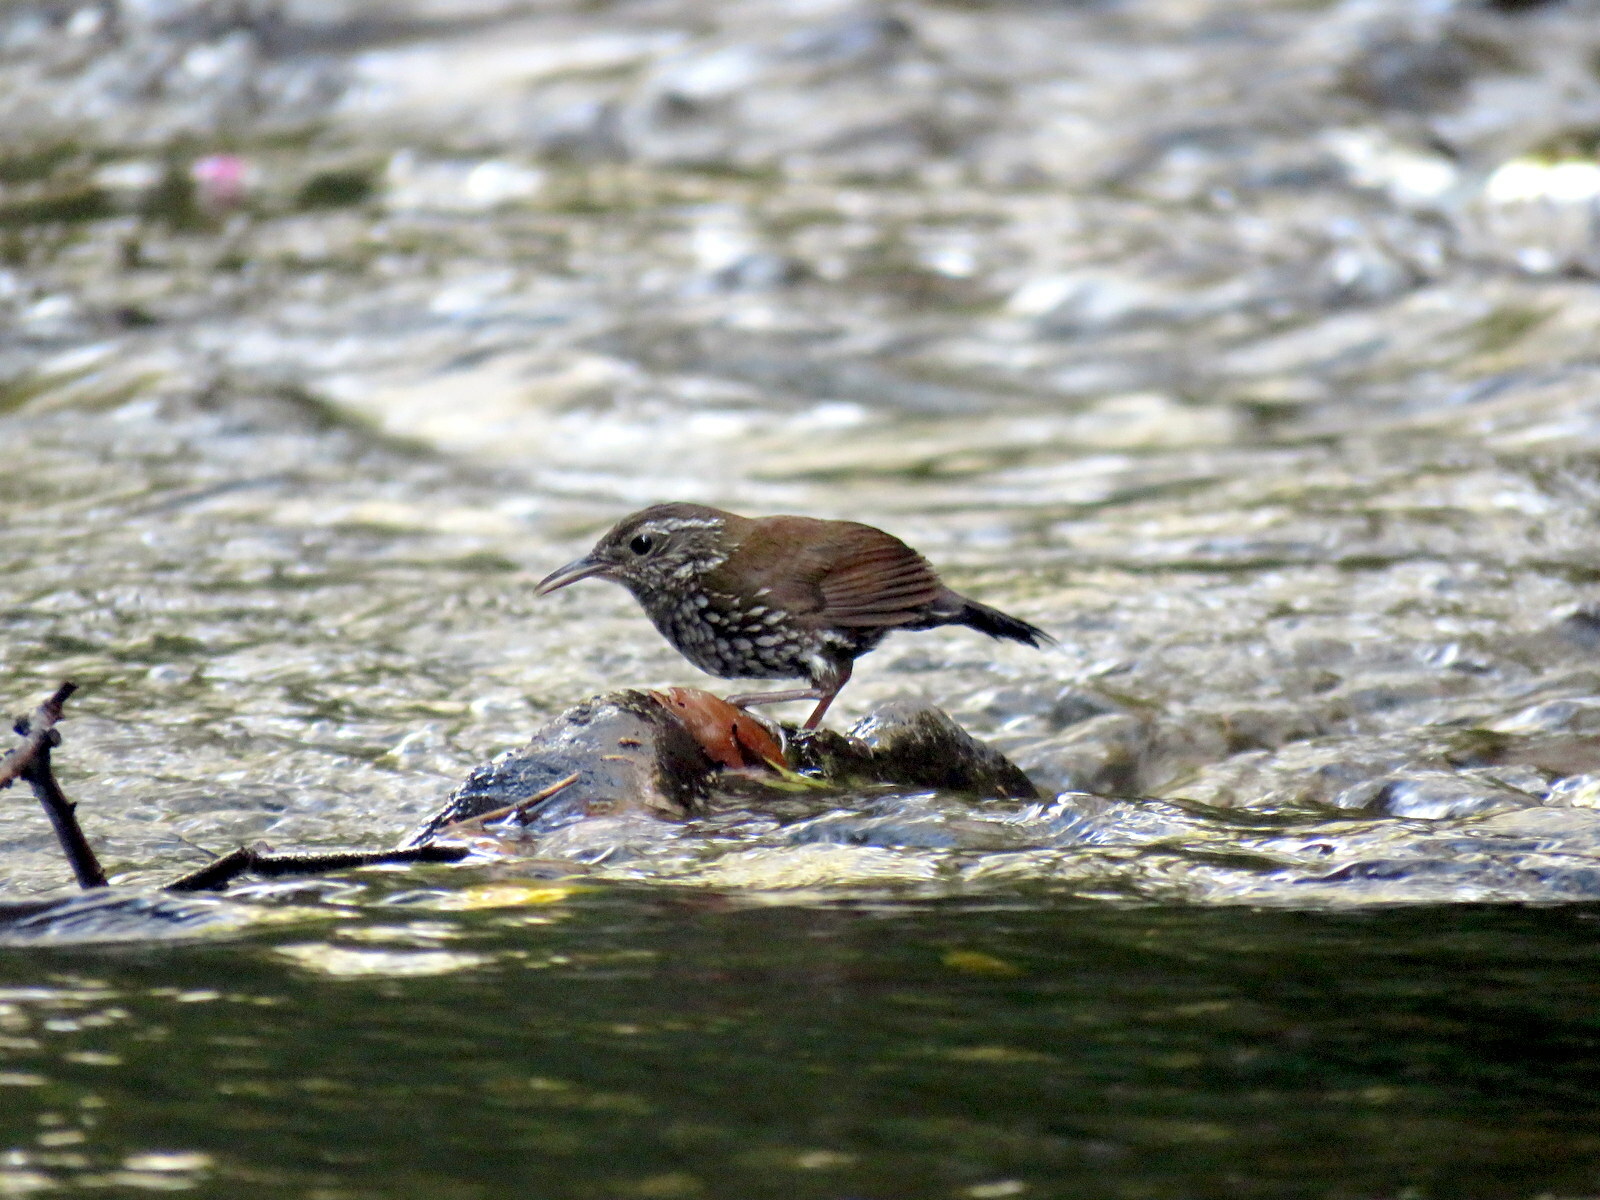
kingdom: Animalia
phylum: Chordata
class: Aves
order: Passeriformes
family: Furnariidae
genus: Lochmias
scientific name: Lochmias nematura
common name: Sharp-tailed streamcreeper
